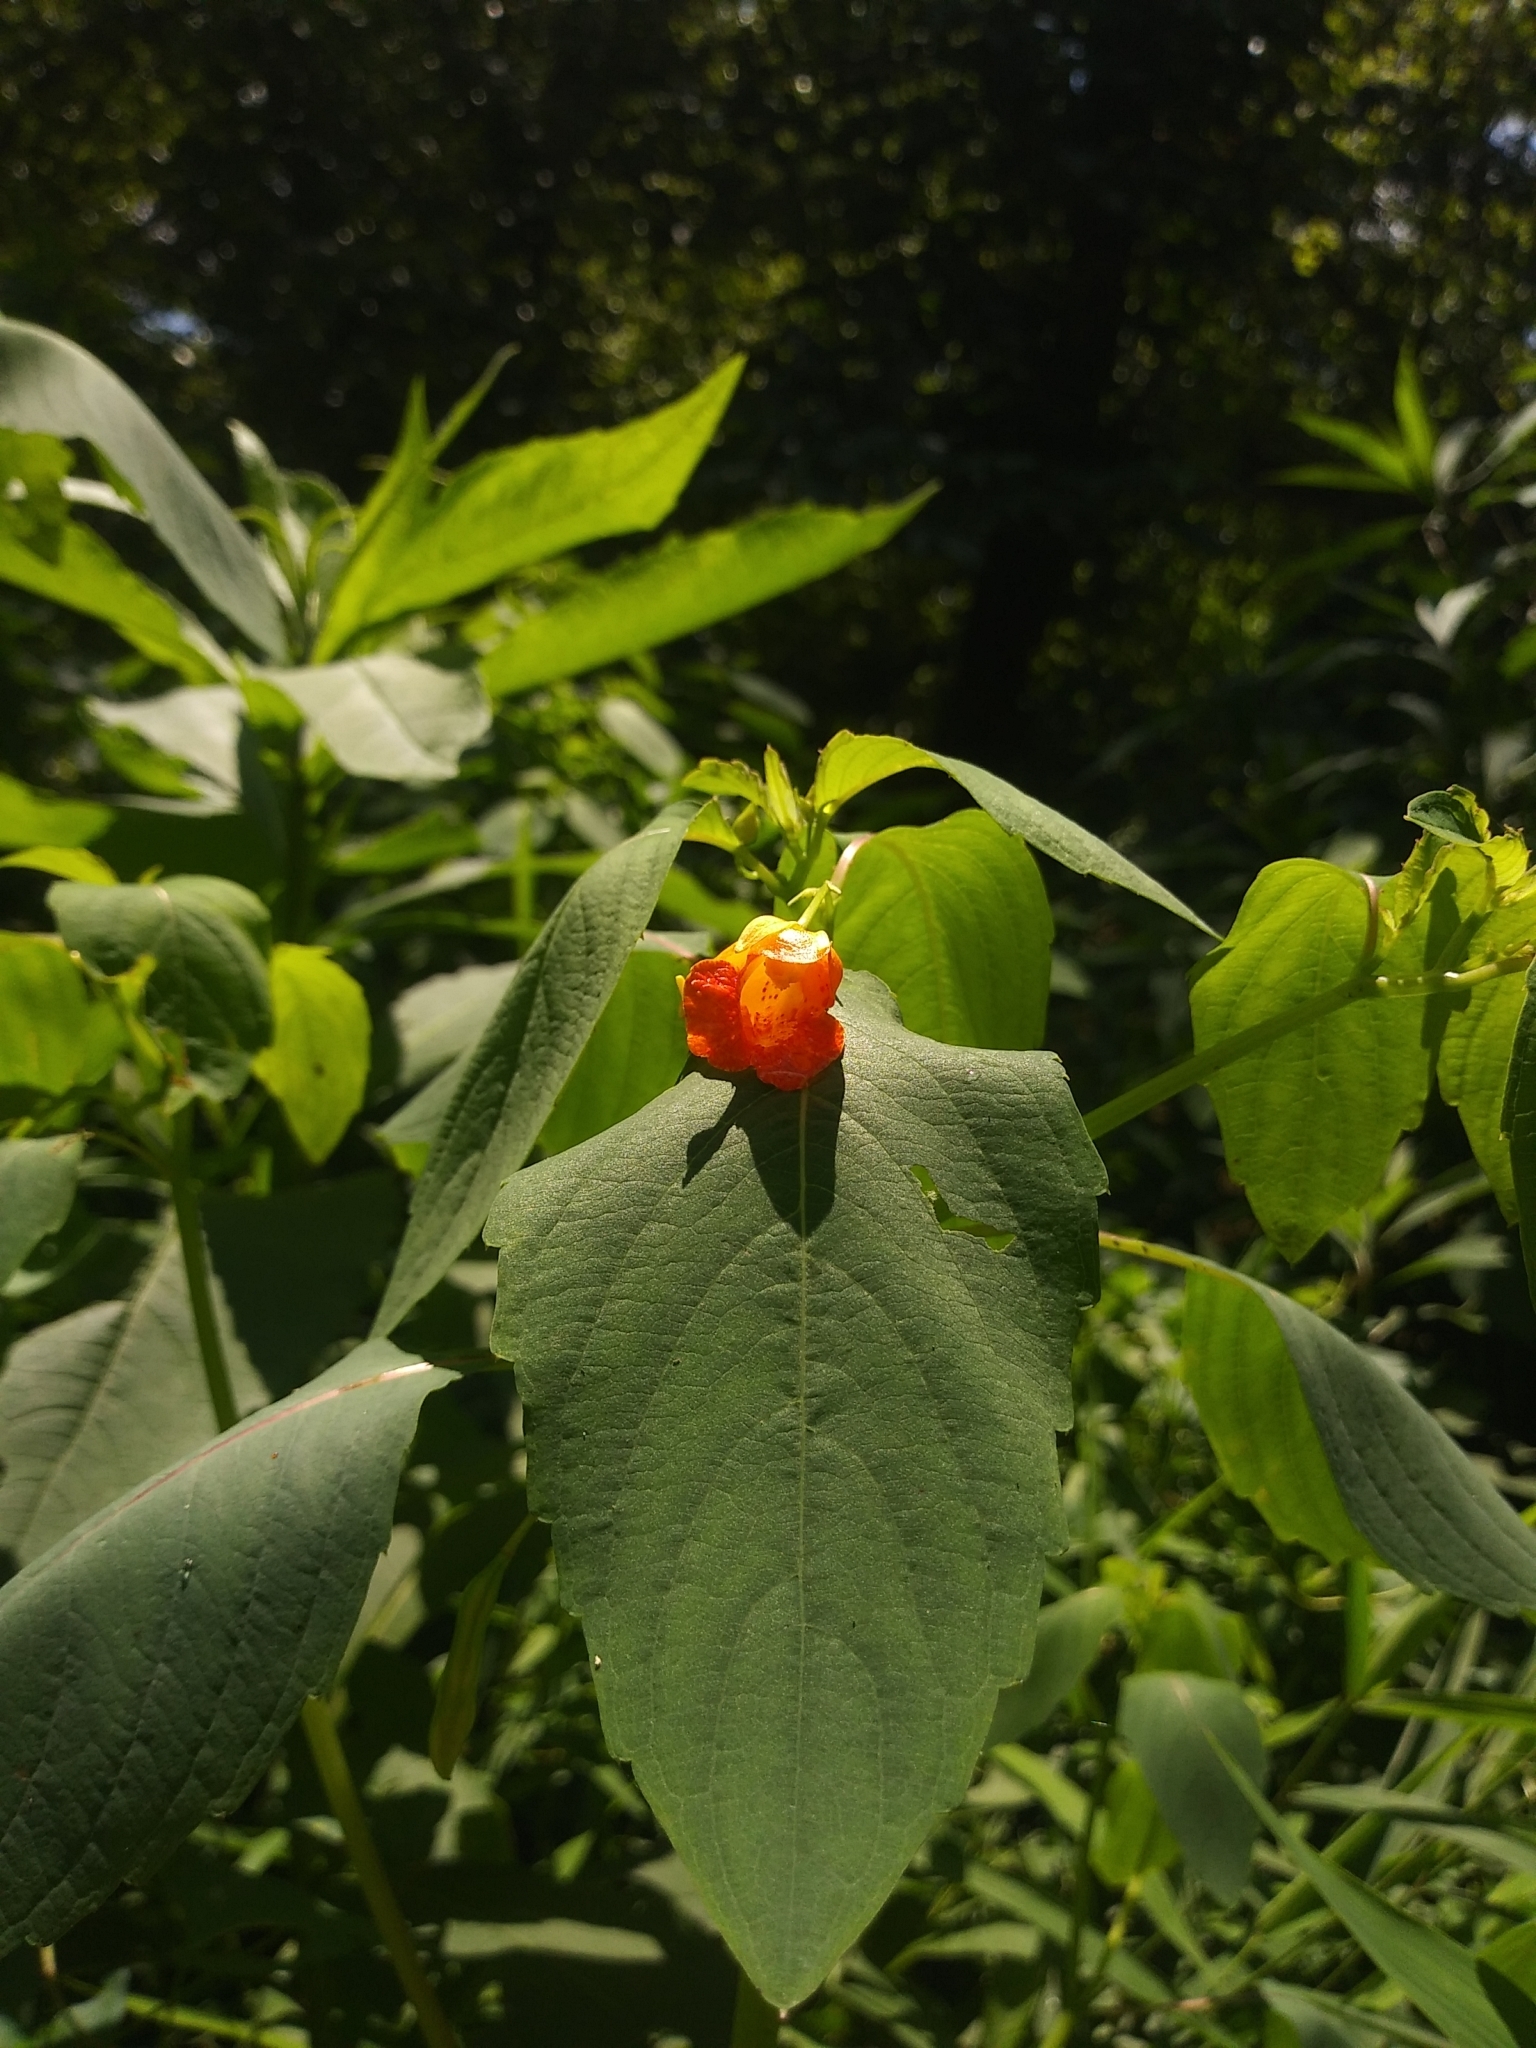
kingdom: Plantae
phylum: Tracheophyta
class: Magnoliopsida
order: Ericales
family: Balsaminaceae
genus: Impatiens
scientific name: Impatiens capensis
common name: Orange balsam
